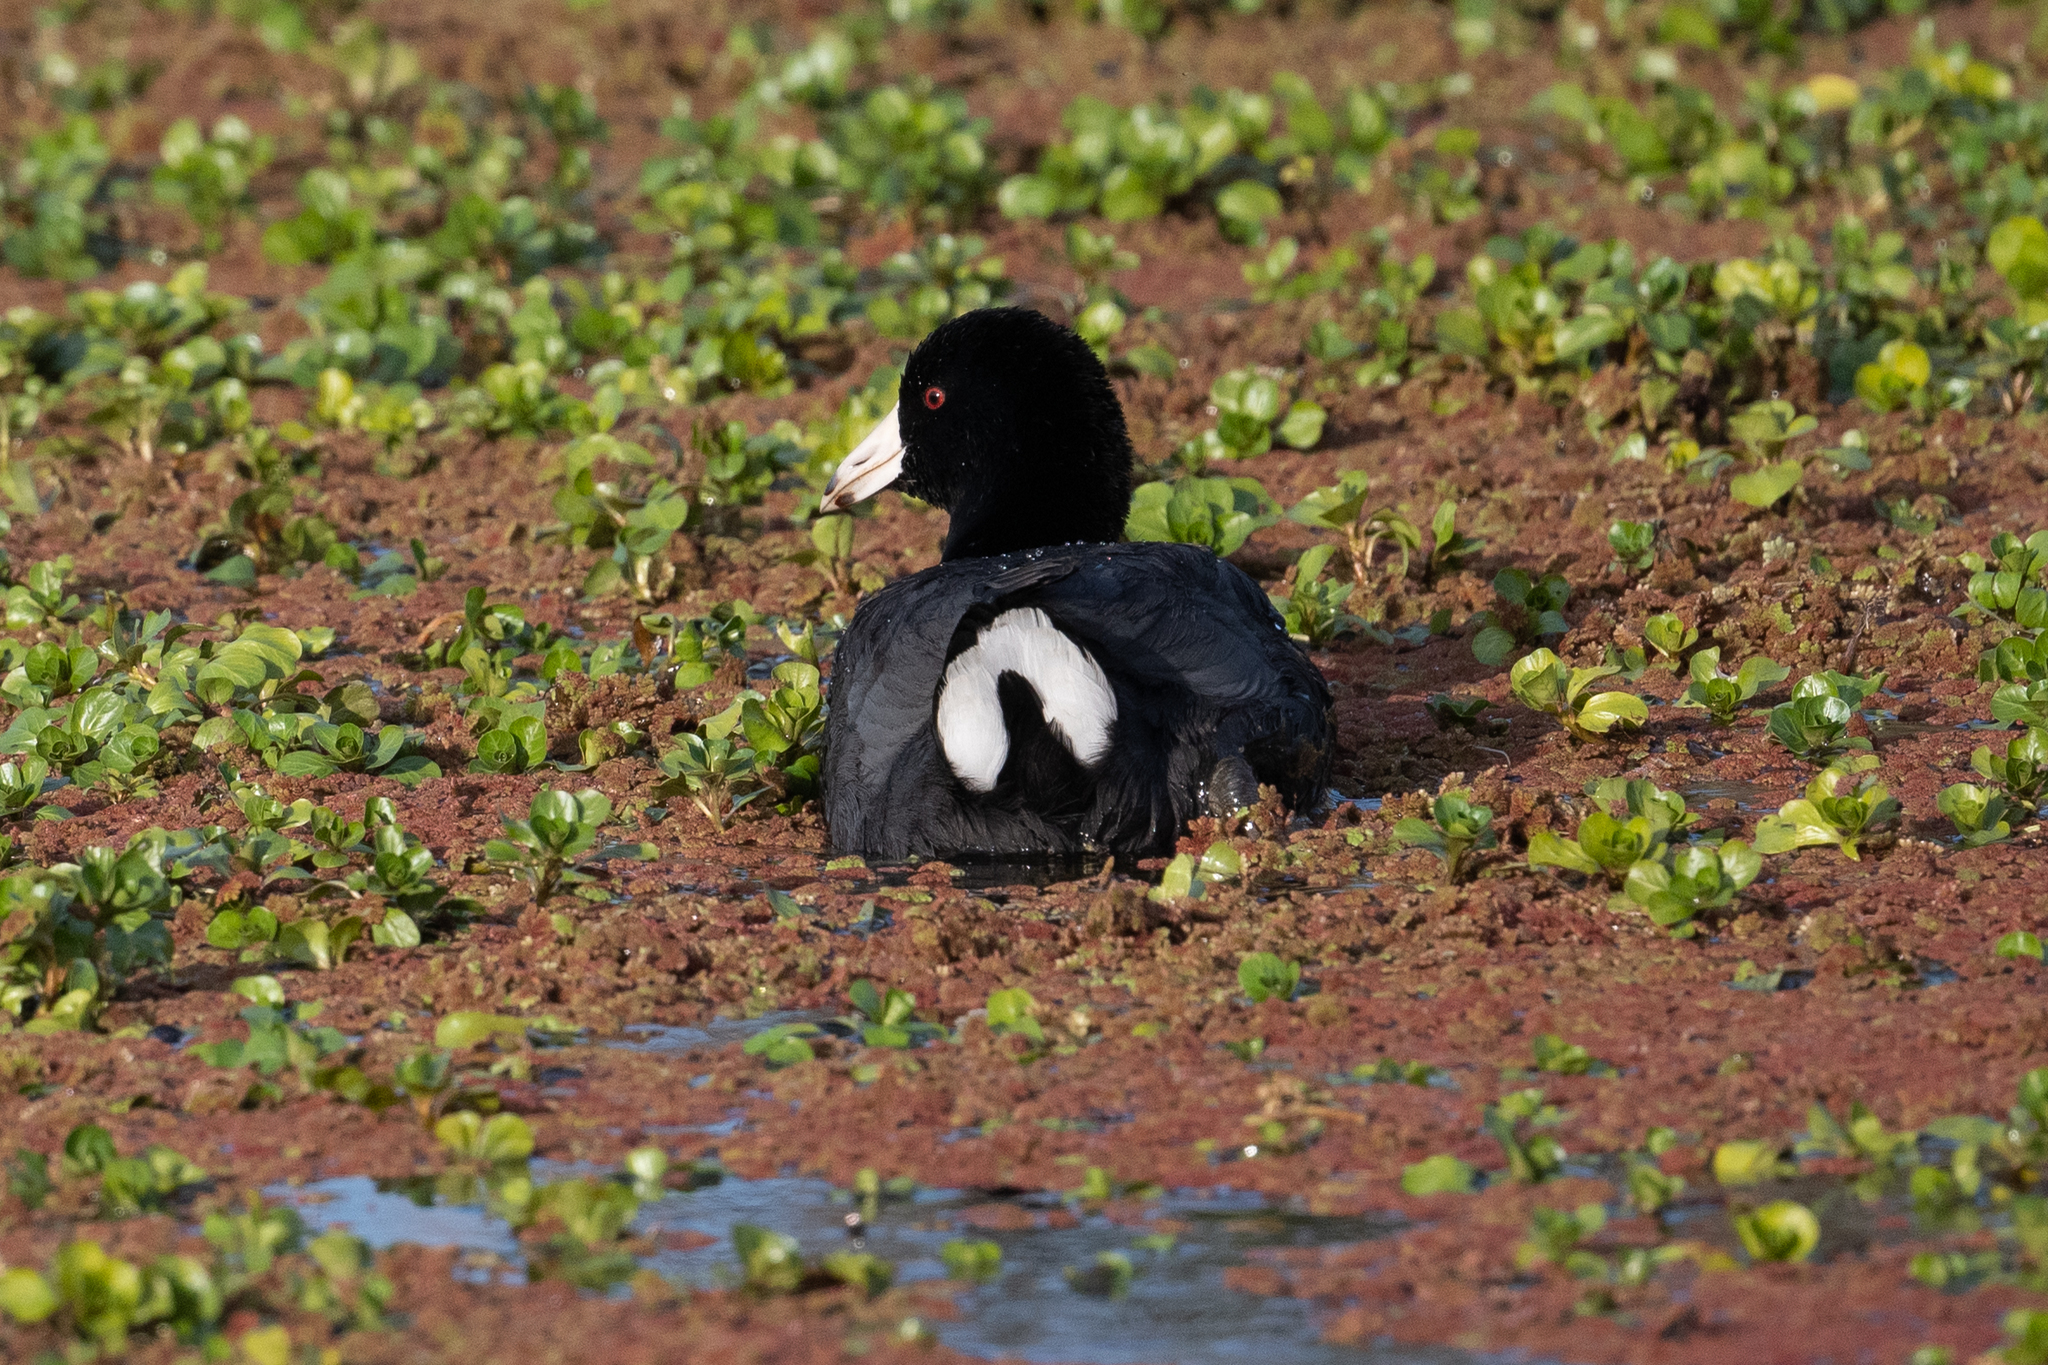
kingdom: Animalia
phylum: Chordata
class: Aves
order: Gruiformes
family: Rallidae
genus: Fulica
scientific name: Fulica americana
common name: American coot
